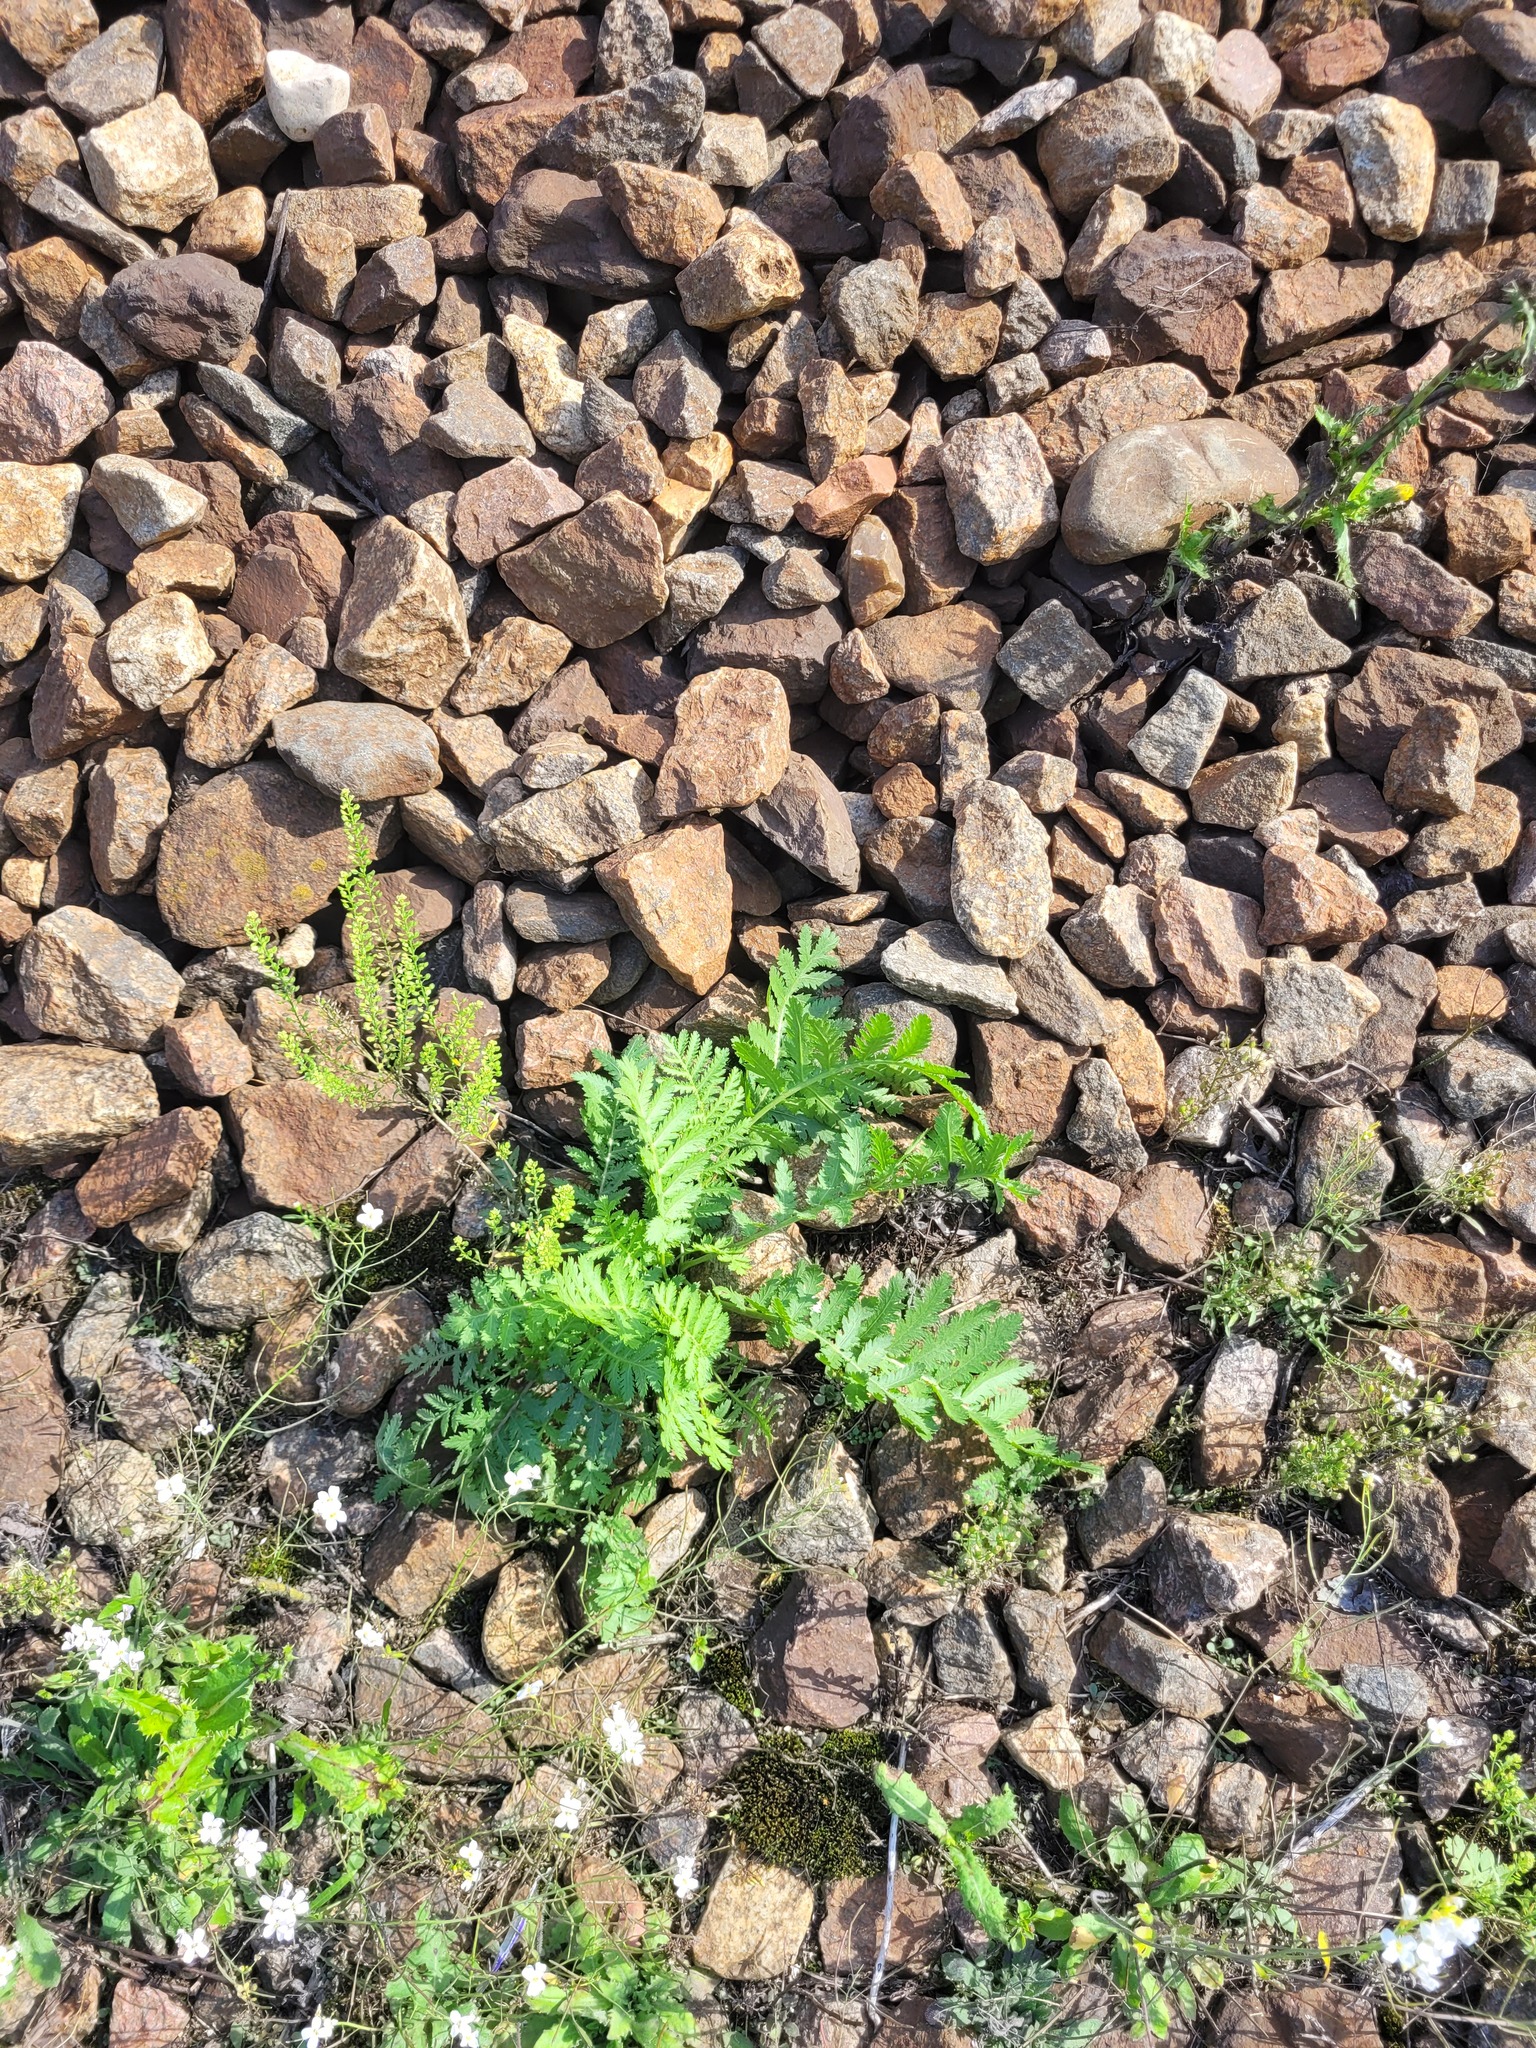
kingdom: Plantae
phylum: Tracheophyta
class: Magnoliopsida
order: Asterales
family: Asteraceae
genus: Tanacetum
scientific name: Tanacetum vulgare
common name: Common tansy
